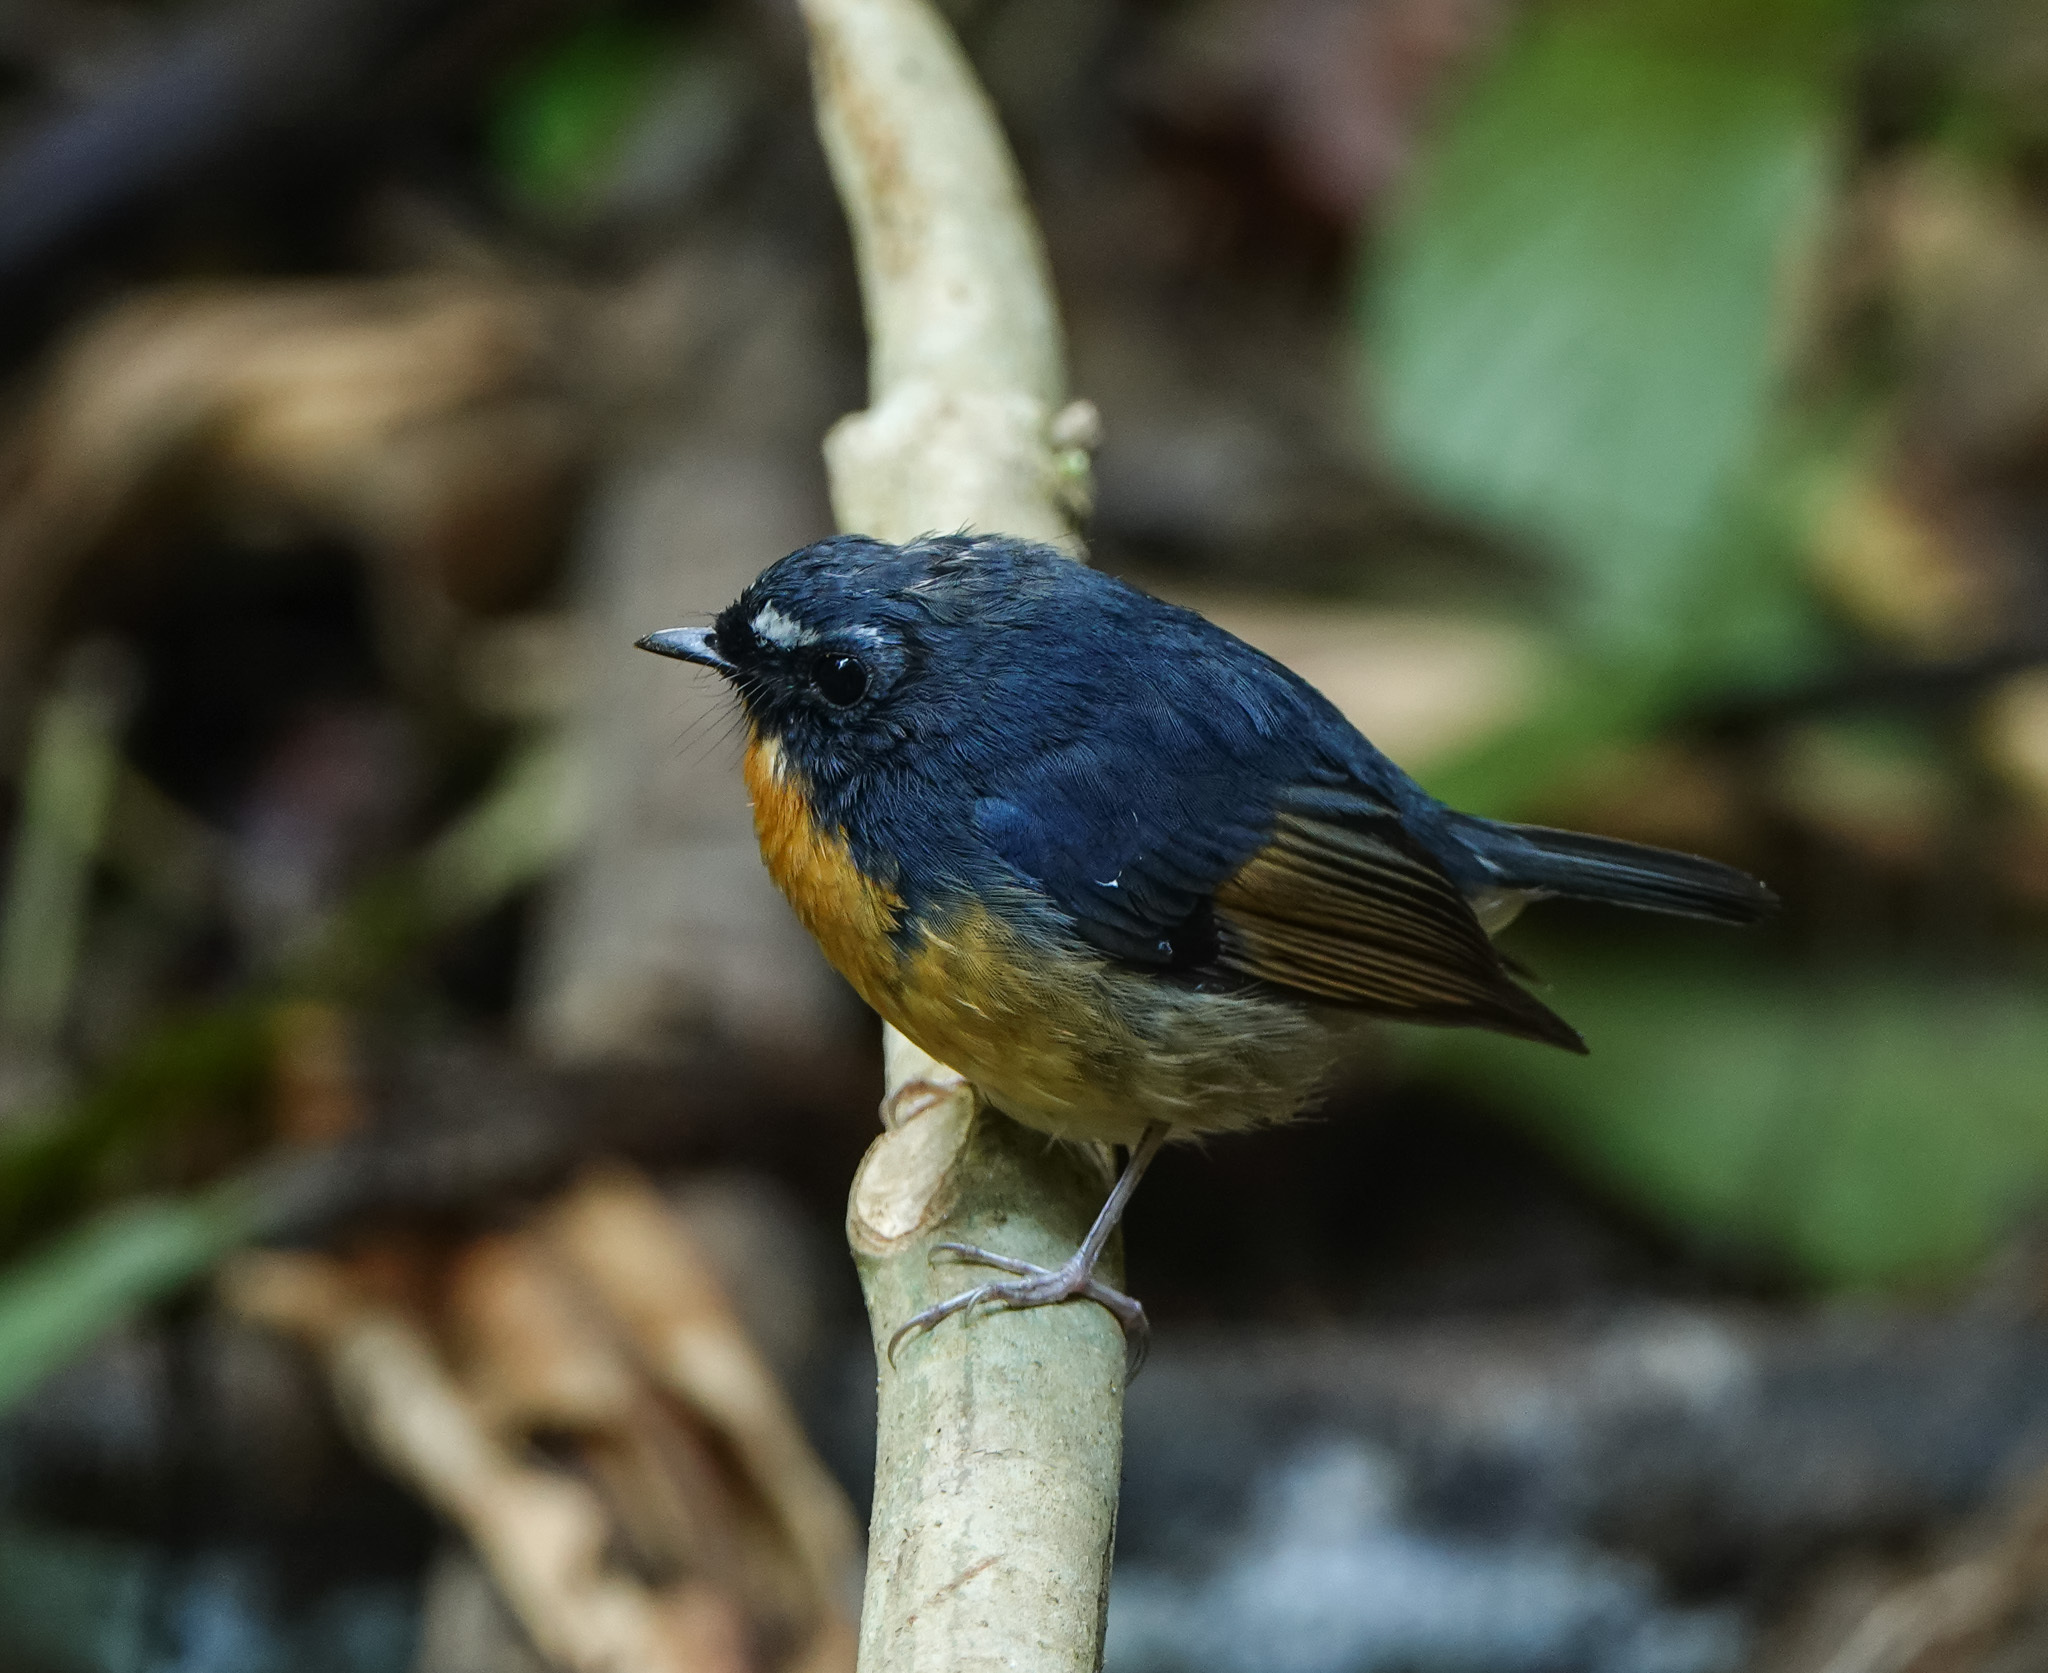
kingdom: Animalia
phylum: Chordata
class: Aves
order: Passeriformes
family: Muscicapidae
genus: Ficedula
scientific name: Ficedula hyperythra
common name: Snowy-browed flycatcher
